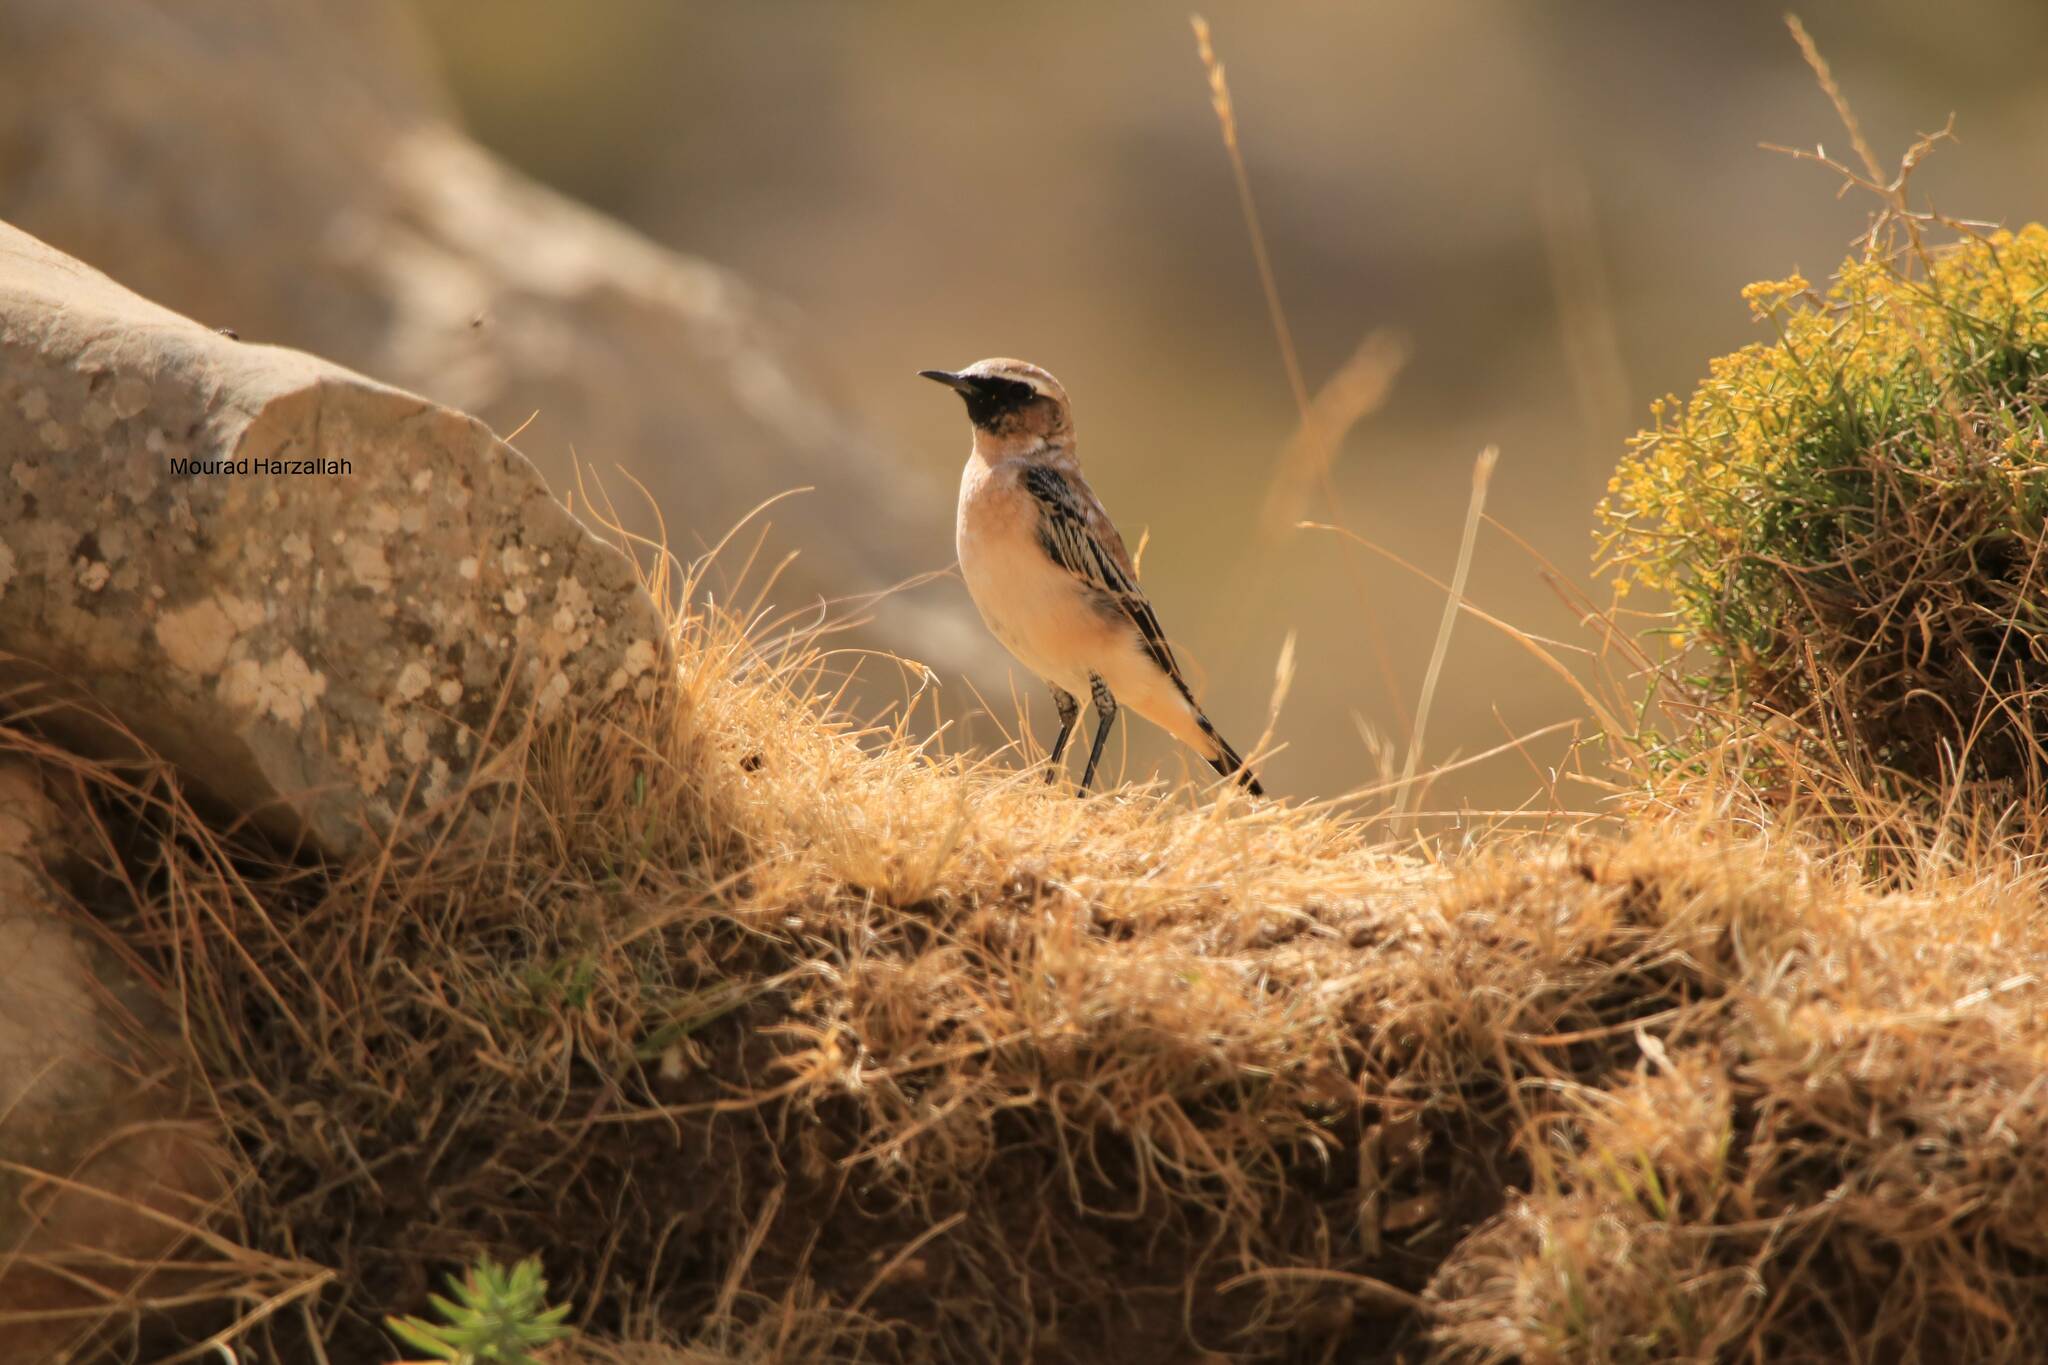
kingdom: Animalia
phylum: Chordata
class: Aves
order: Passeriformes
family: Muscicapidae
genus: Oenanthe
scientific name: Oenanthe oenanthe
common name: Northern wheatear
